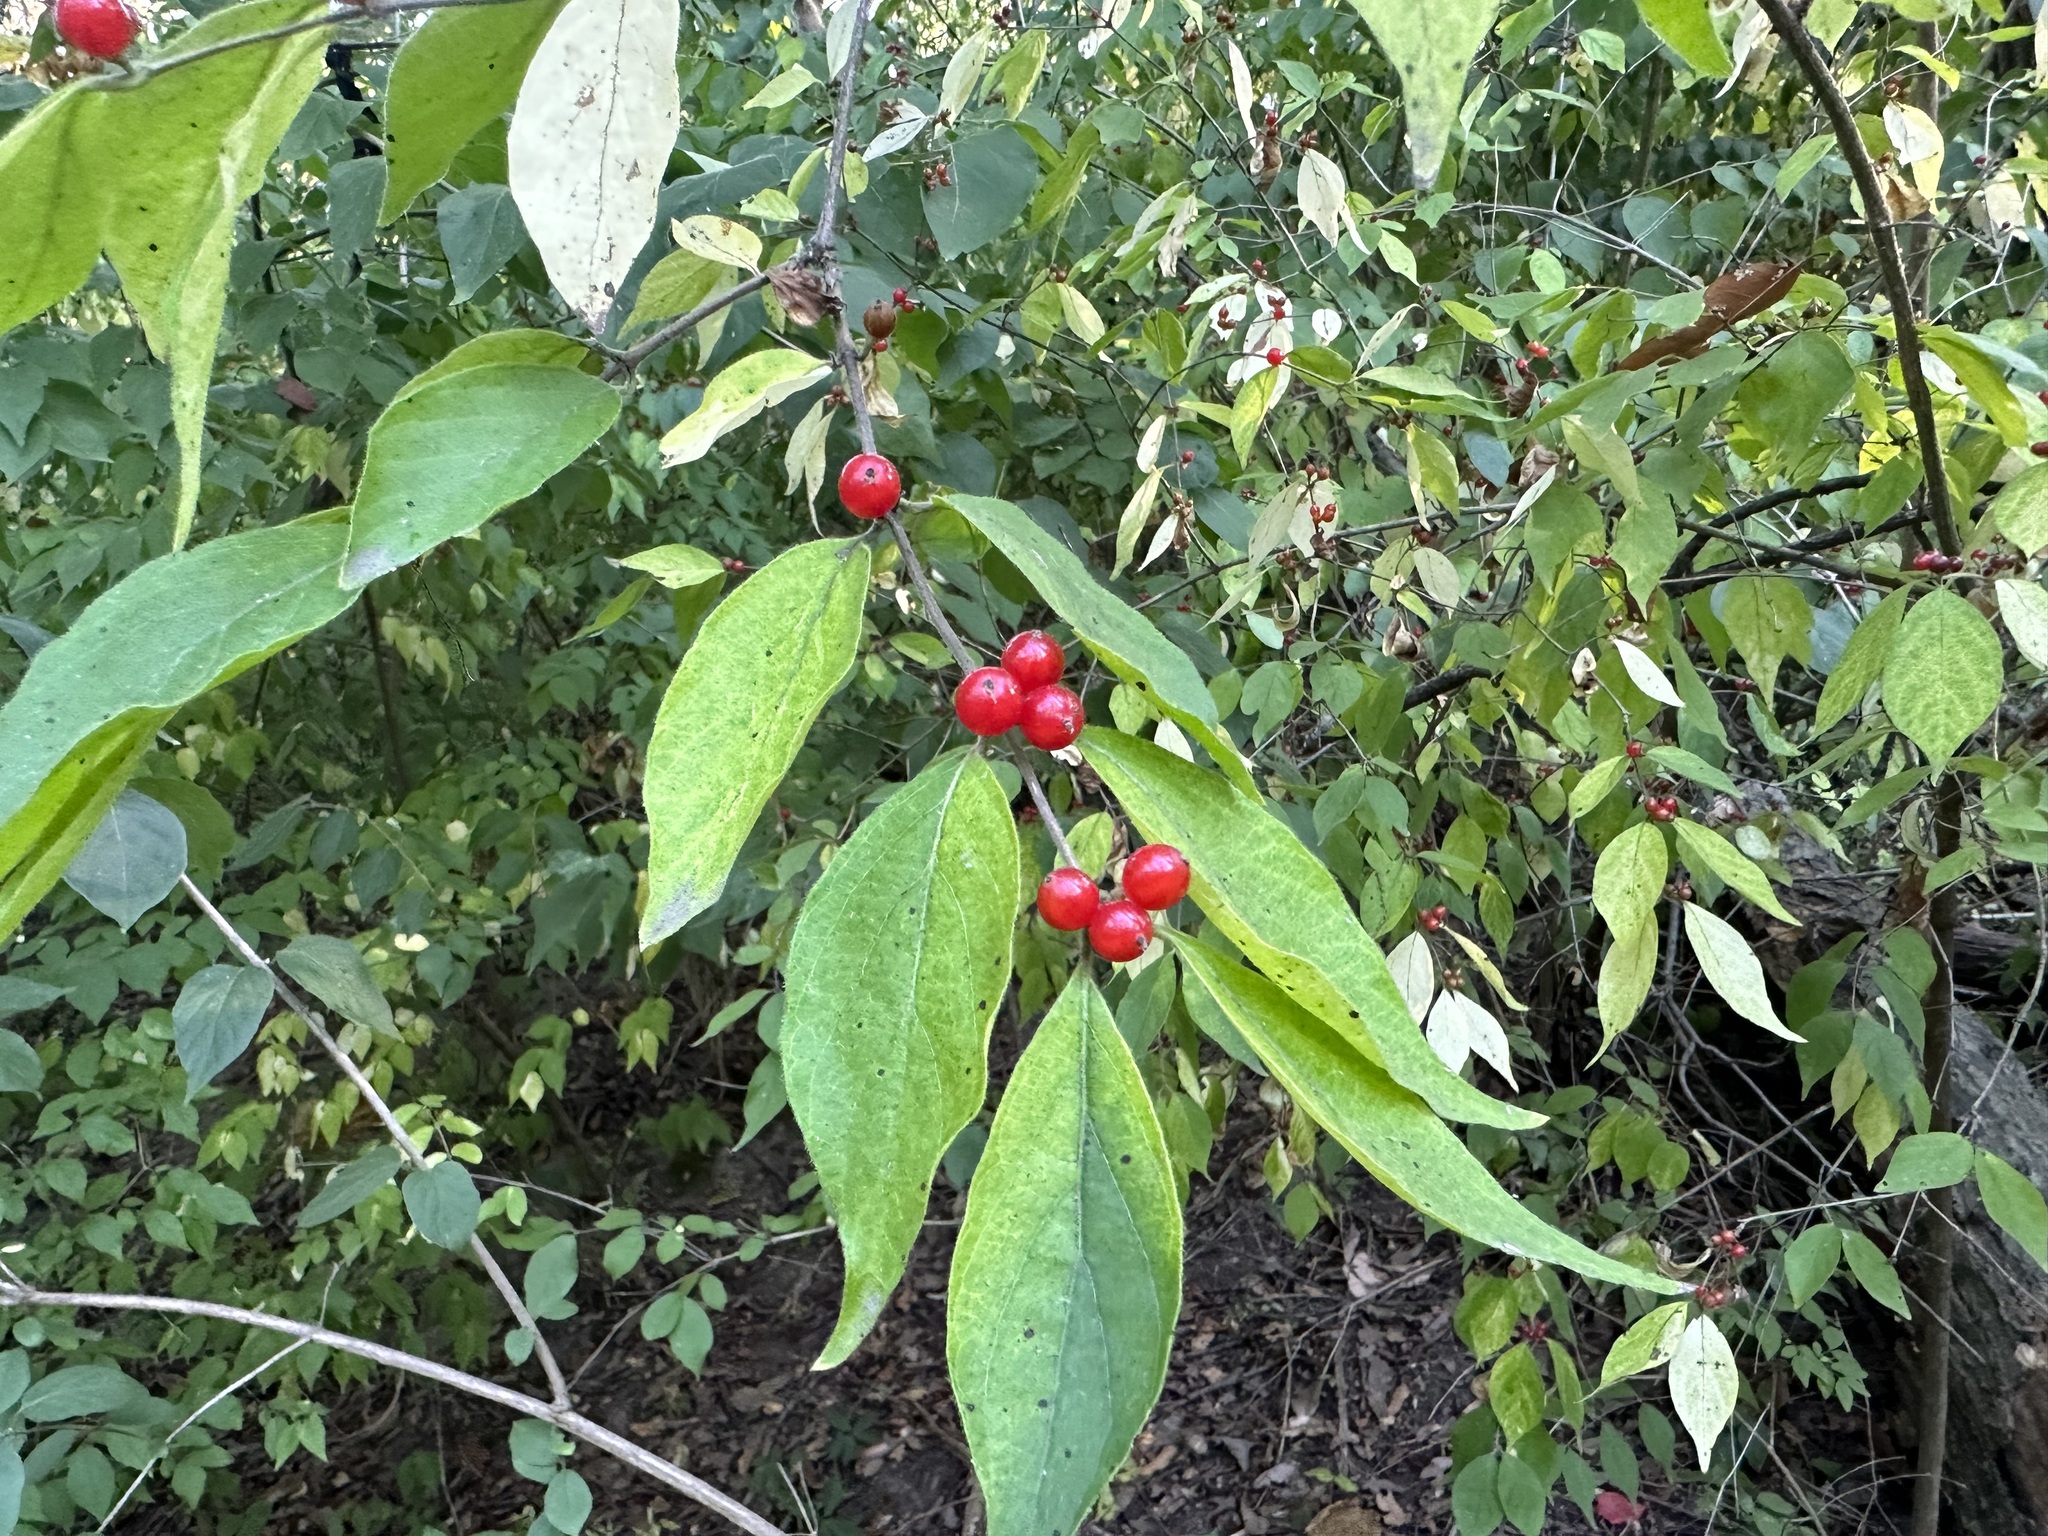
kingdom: Plantae
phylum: Tracheophyta
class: Magnoliopsida
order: Dipsacales
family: Caprifoliaceae
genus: Lonicera
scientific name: Lonicera maackii
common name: Amur honeysuckle
